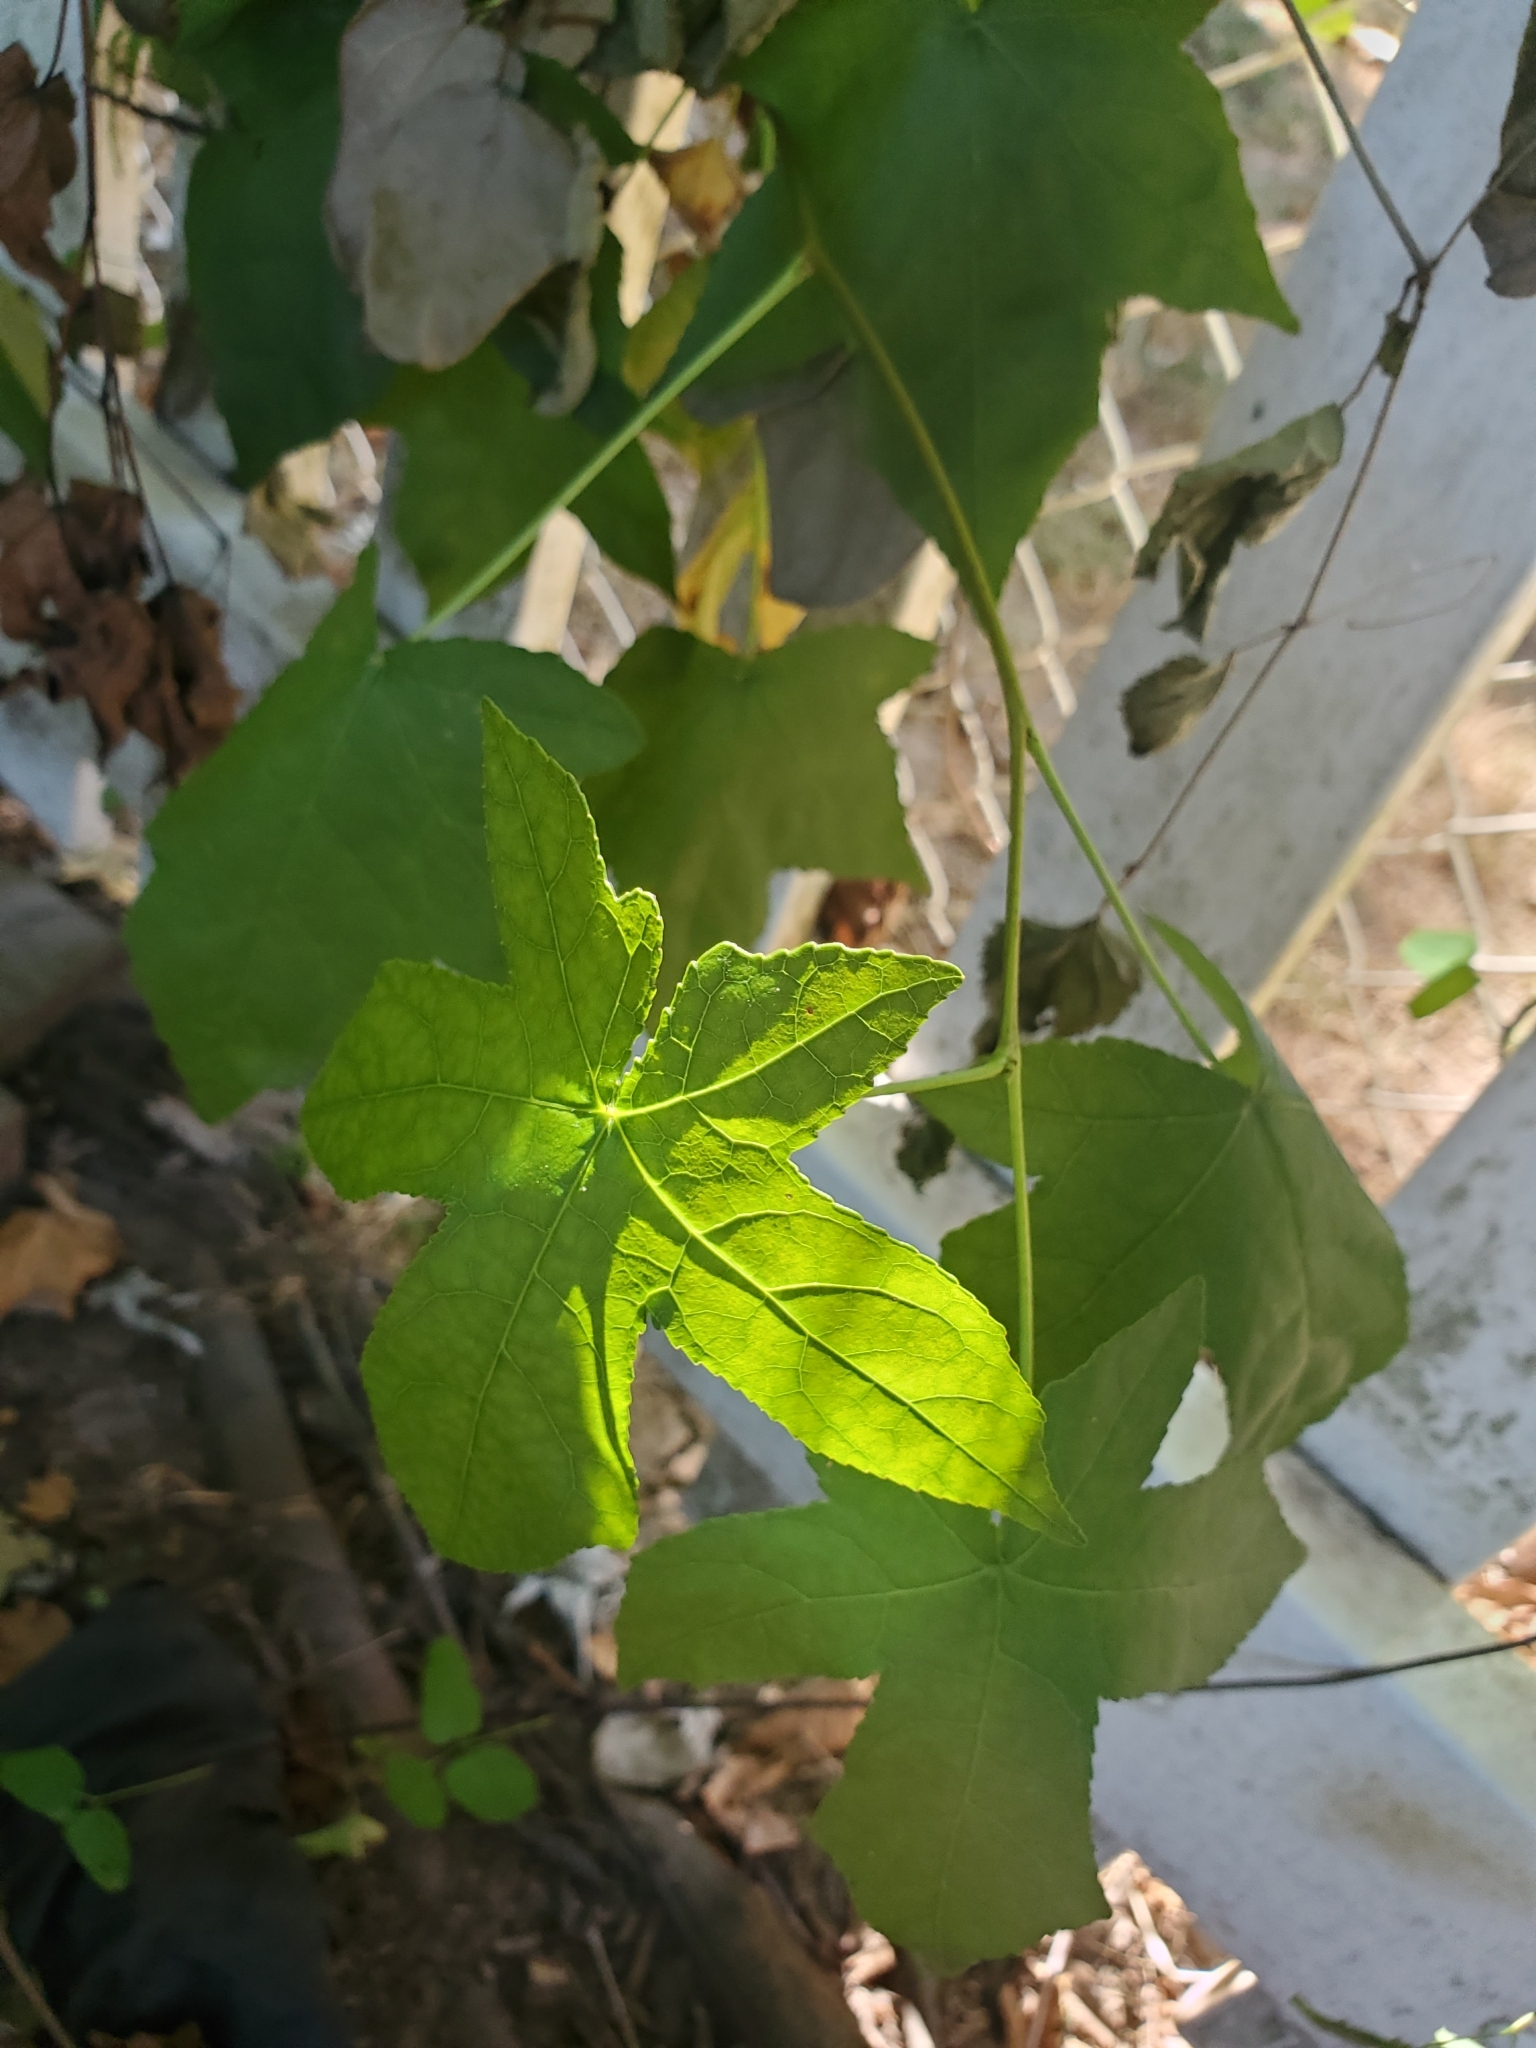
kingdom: Plantae
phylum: Tracheophyta
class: Magnoliopsida
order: Saxifragales
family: Altingiaceae
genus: Liquidambar
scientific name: Liquidambar styraciflua
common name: Sweet gum
